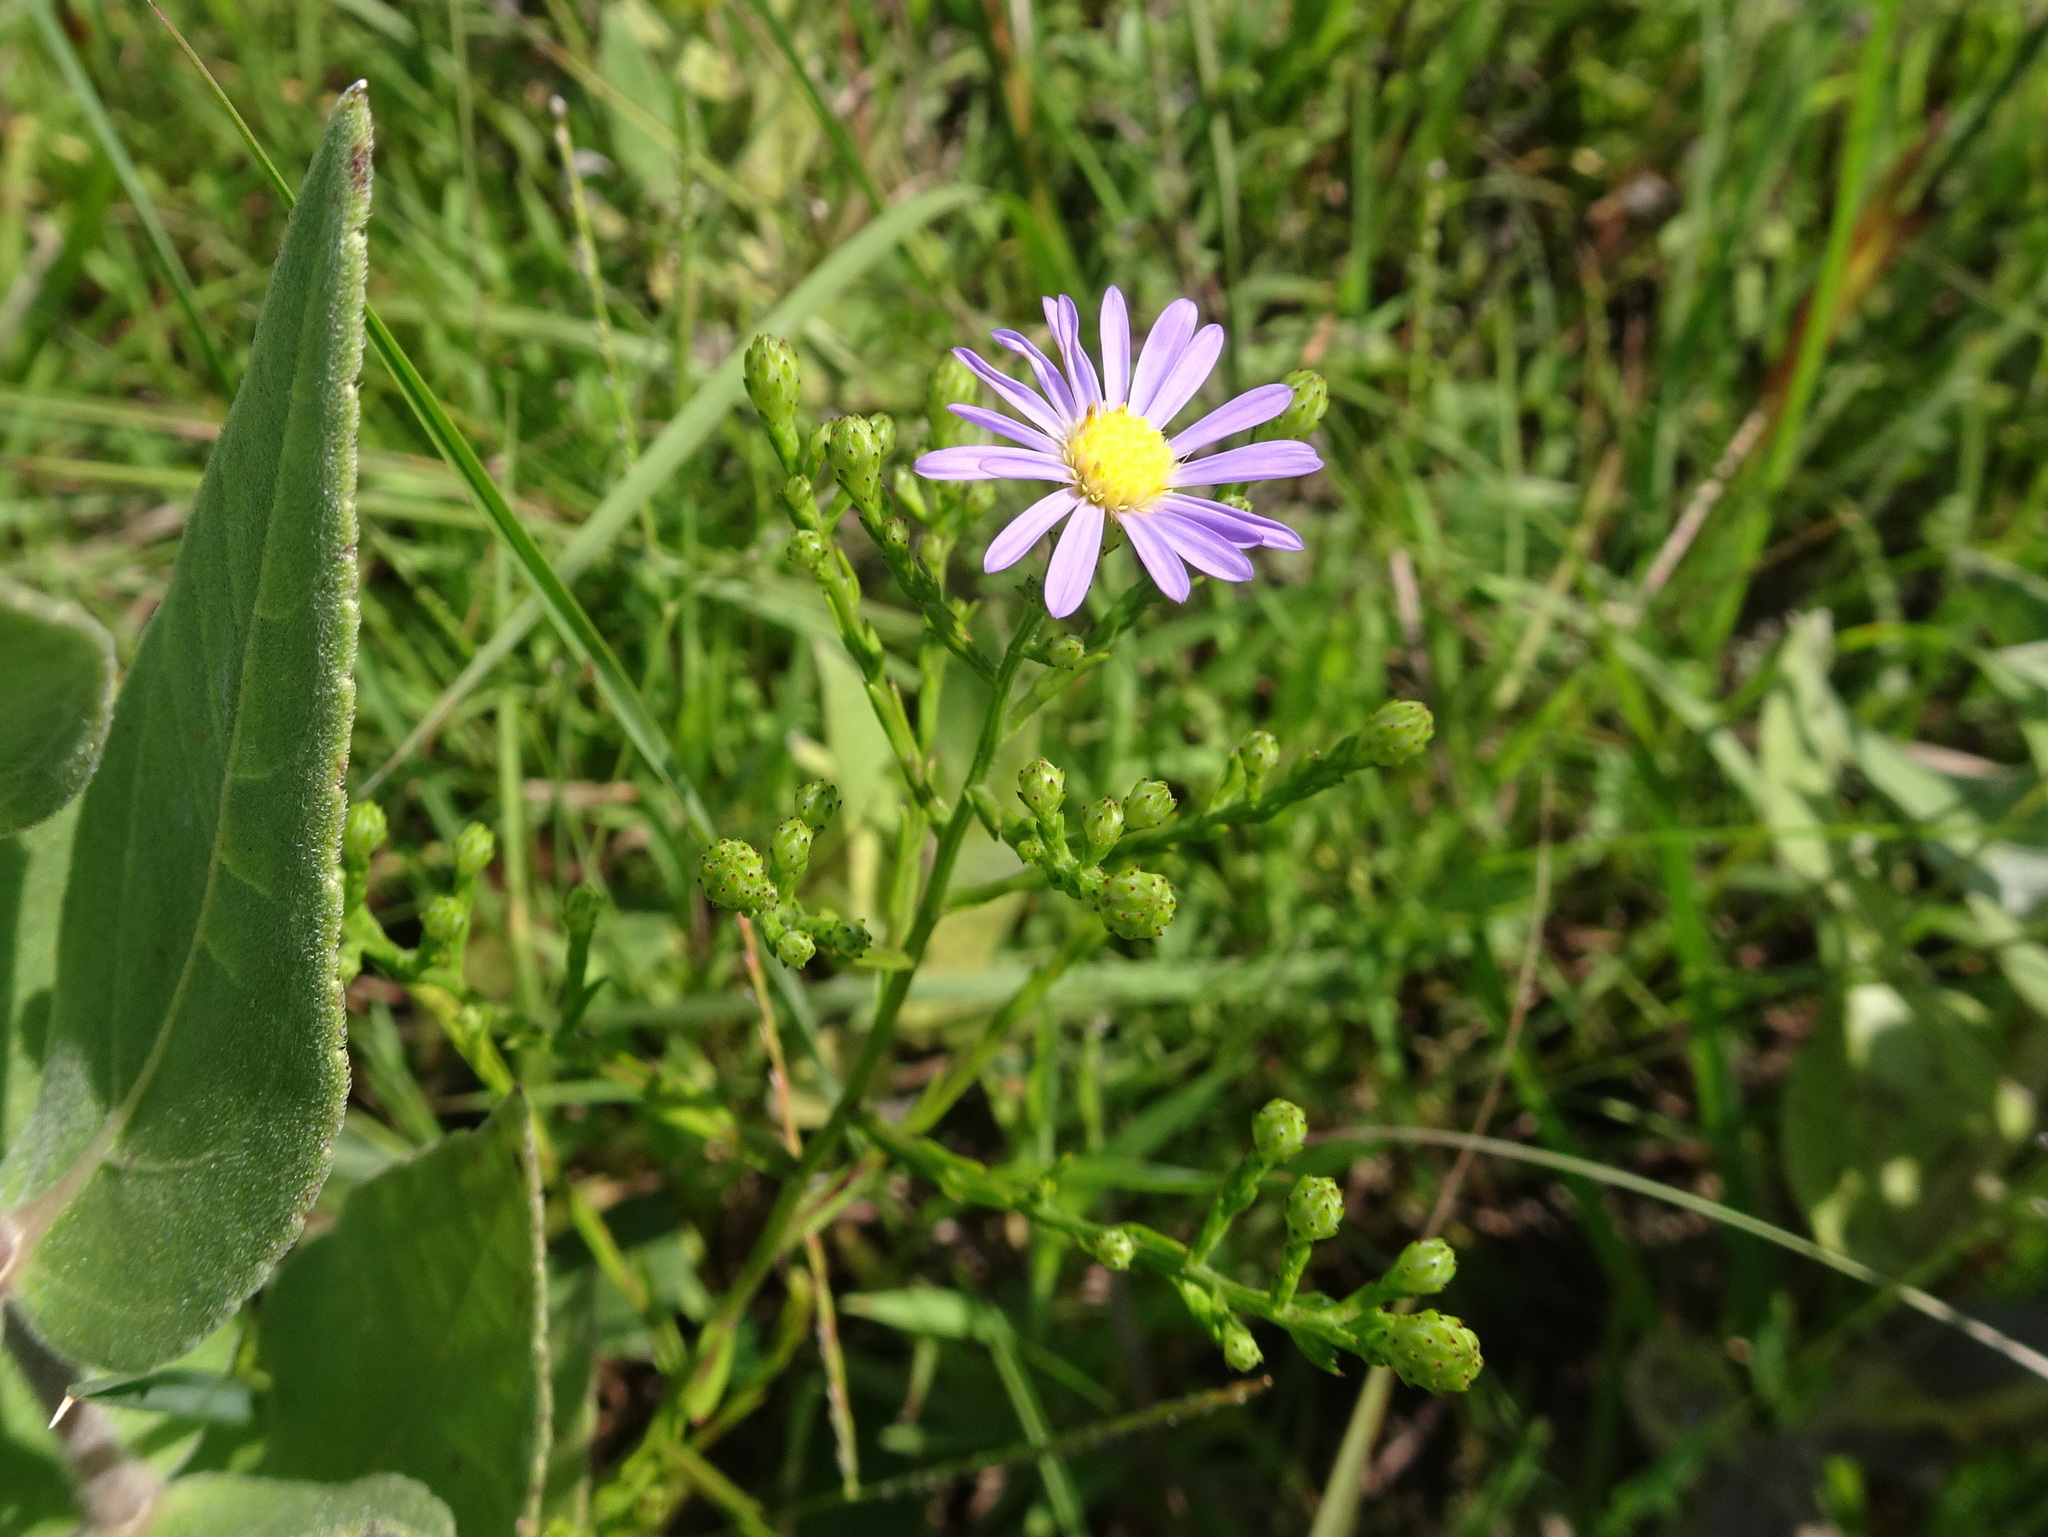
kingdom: Plantae
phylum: Tracheophyta
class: Magnoliopsida
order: Asterales
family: Asteraceae
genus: Symphyotrichum
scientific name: Symphyotrichum oolentangiense
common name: Azure aster
